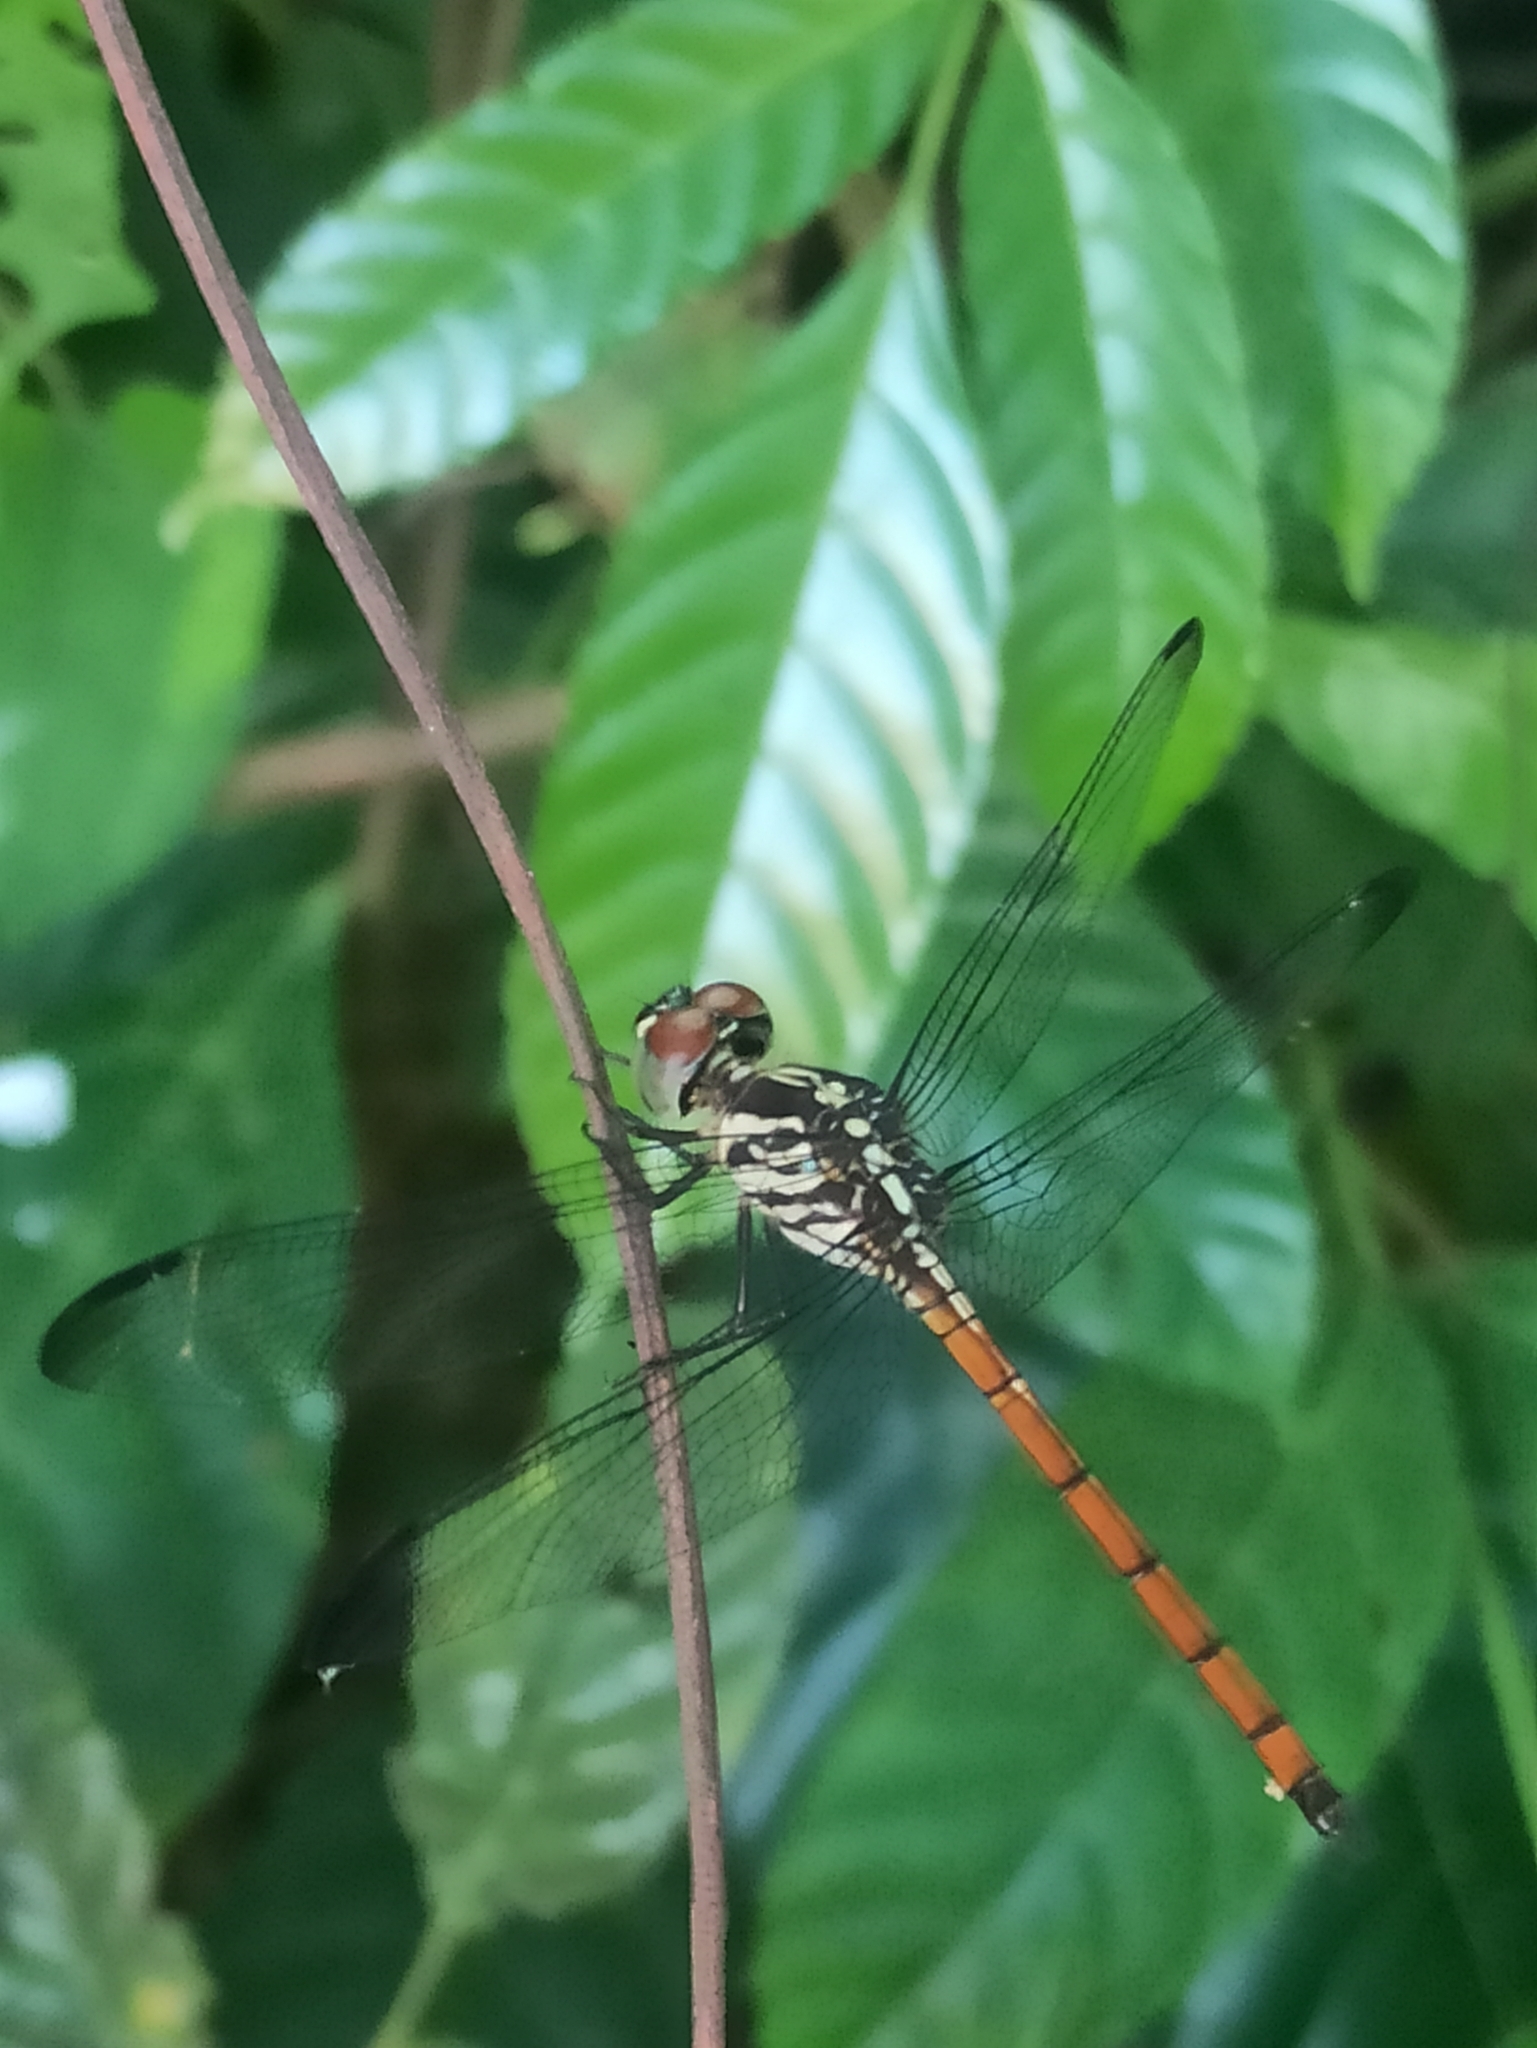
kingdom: Animalia
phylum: Arthropoda
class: Insecta
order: Odonata
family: Libellulidae
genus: Lathrecista
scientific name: Lathrecista asiatica
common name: Scarlet grenadier
